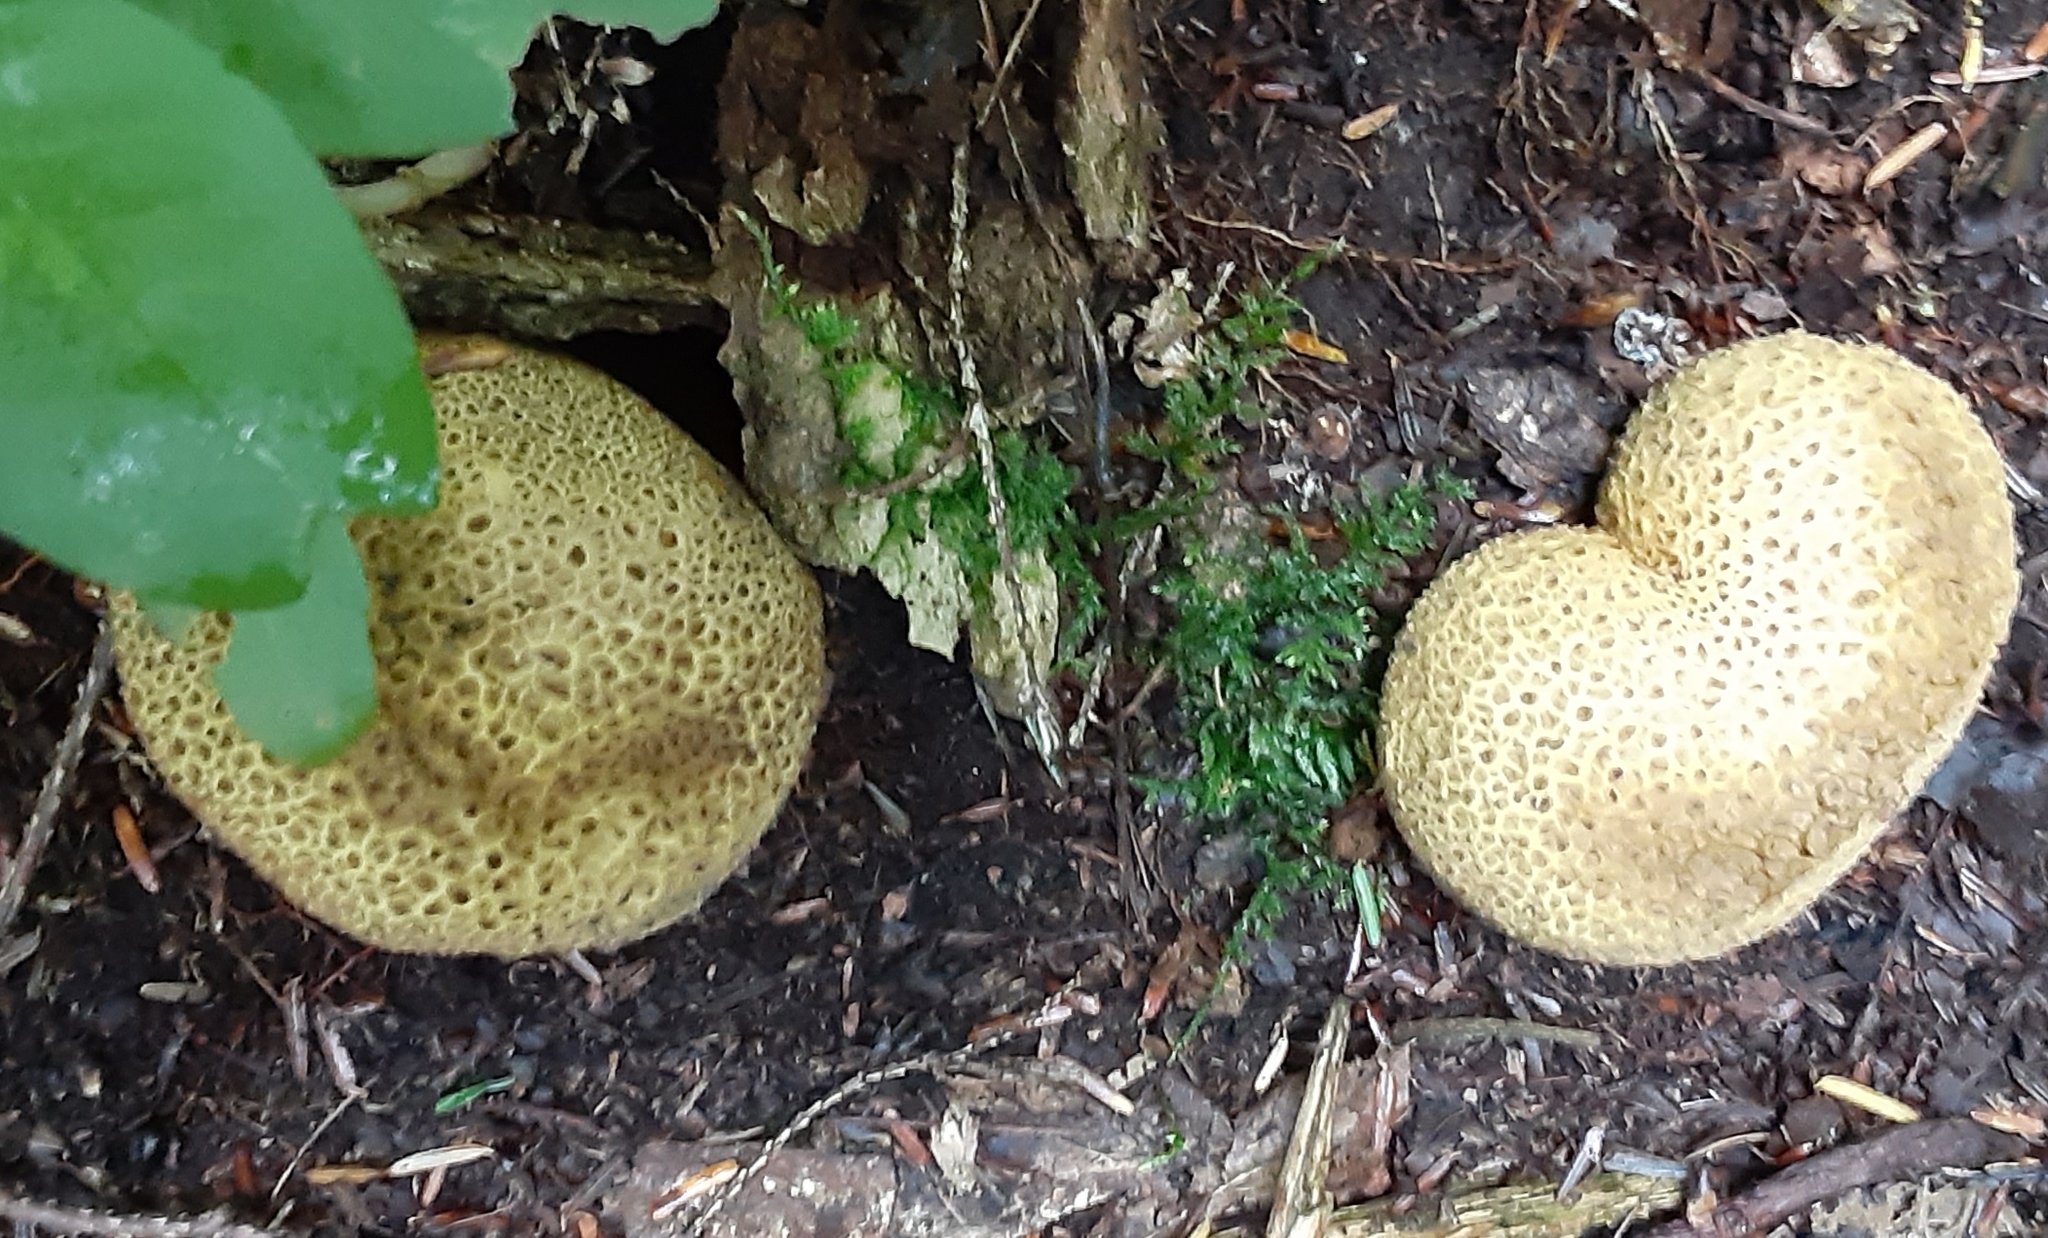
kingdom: Fungi
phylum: Basidiomycota
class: Agaricomycetes
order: Boletales
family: Sclerodermataceae
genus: Scleroderma
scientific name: Scleroderma citrinum
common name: Common earthball
